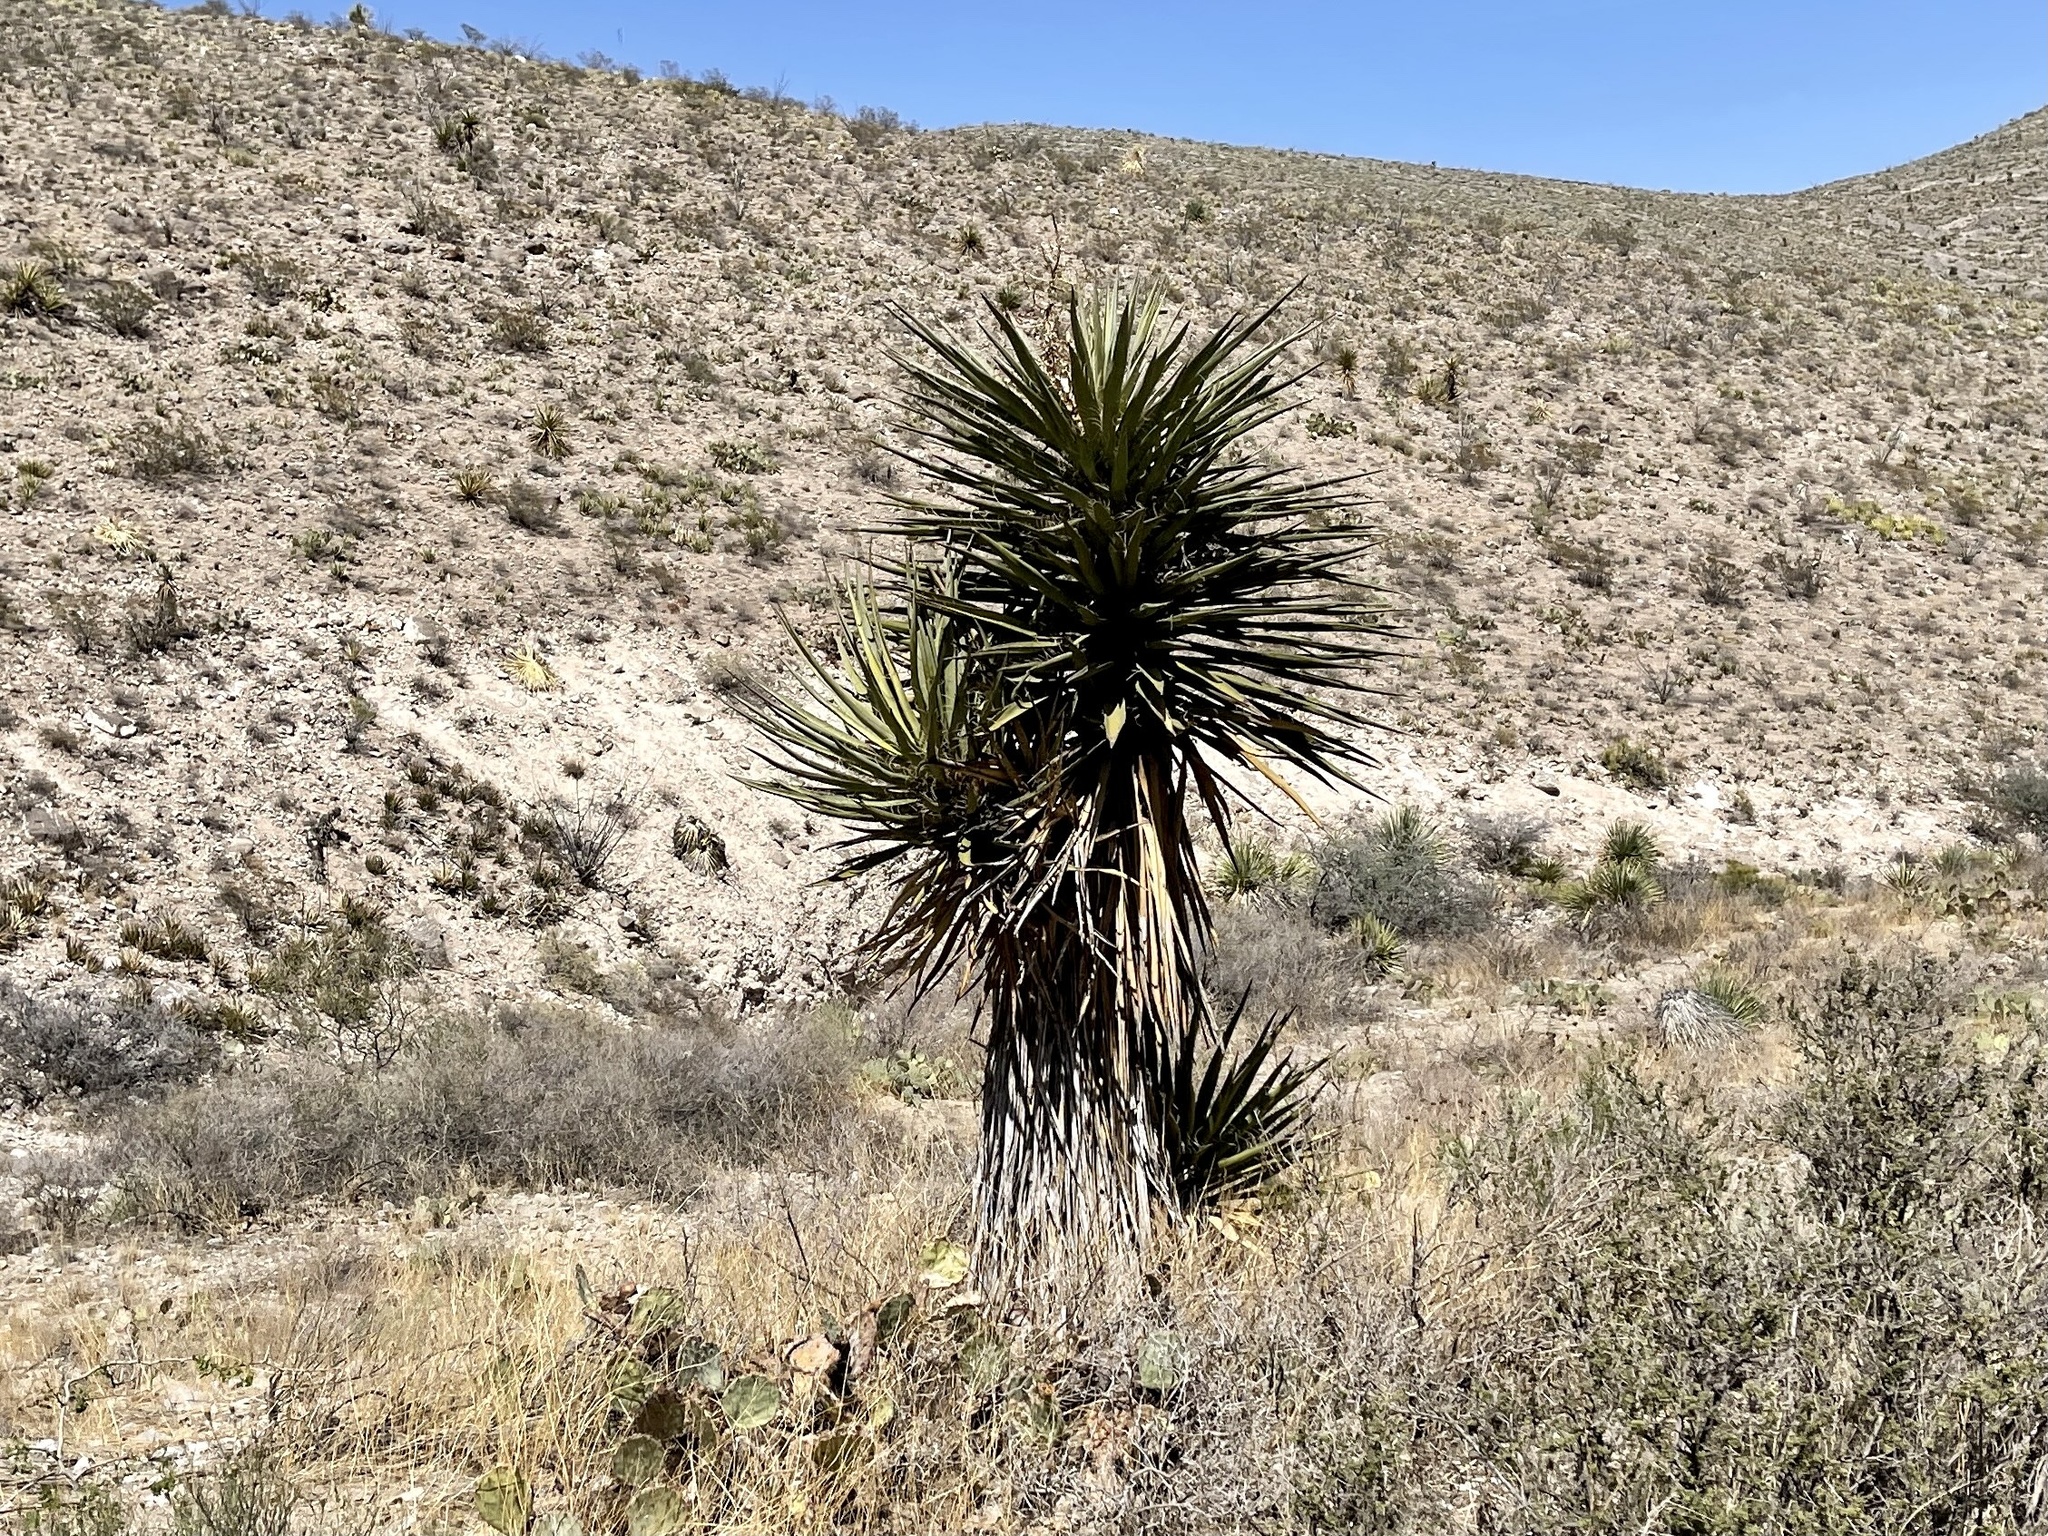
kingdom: Plantae
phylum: Tracheophyta
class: Liliopsida
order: Asparagales
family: Asparagaceae
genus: Yucca
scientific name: Yucca treculiana
